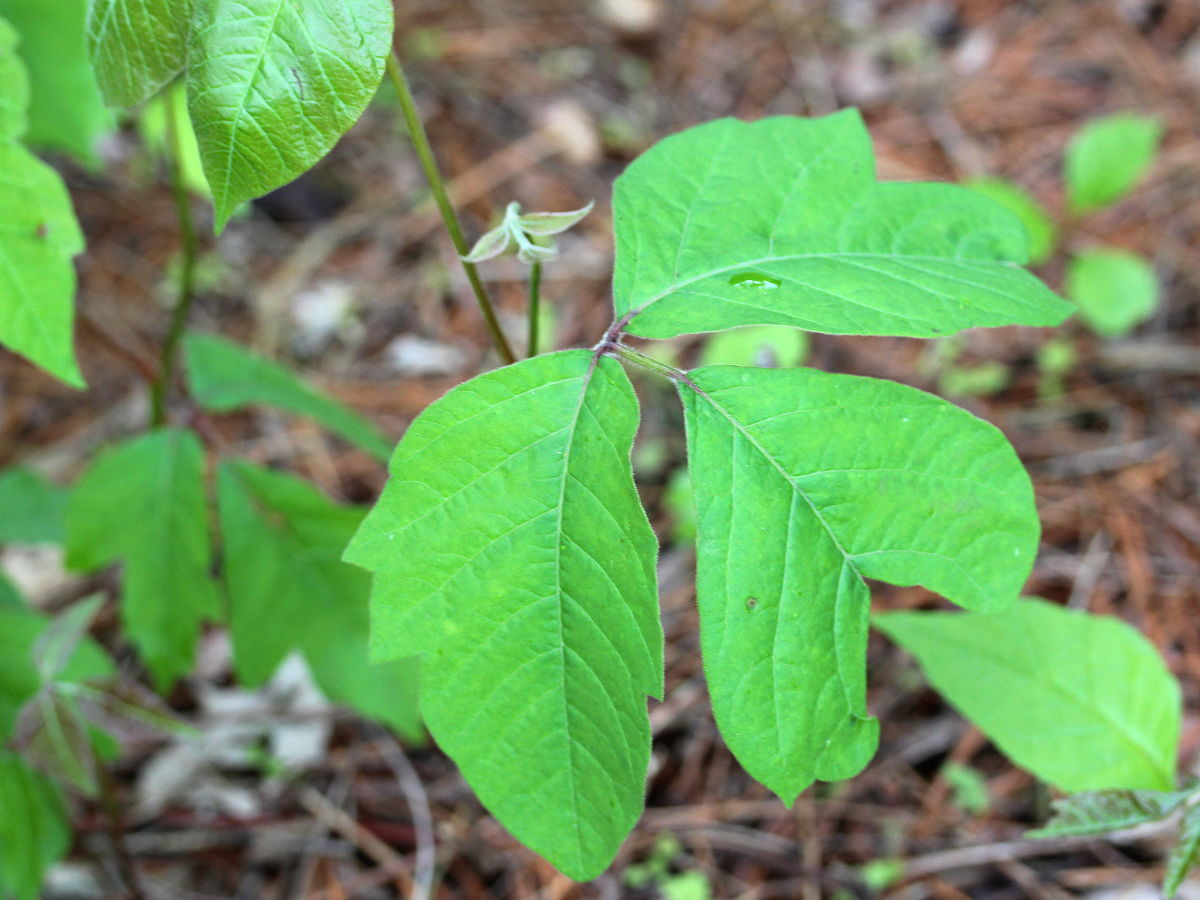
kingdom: Plantae
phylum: Tracheophyta
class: Magnoliopsida
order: Sapindales
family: Anacardiaceae
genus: Toxicodendron
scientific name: Toxicodendron radicans
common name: Poison ivy
